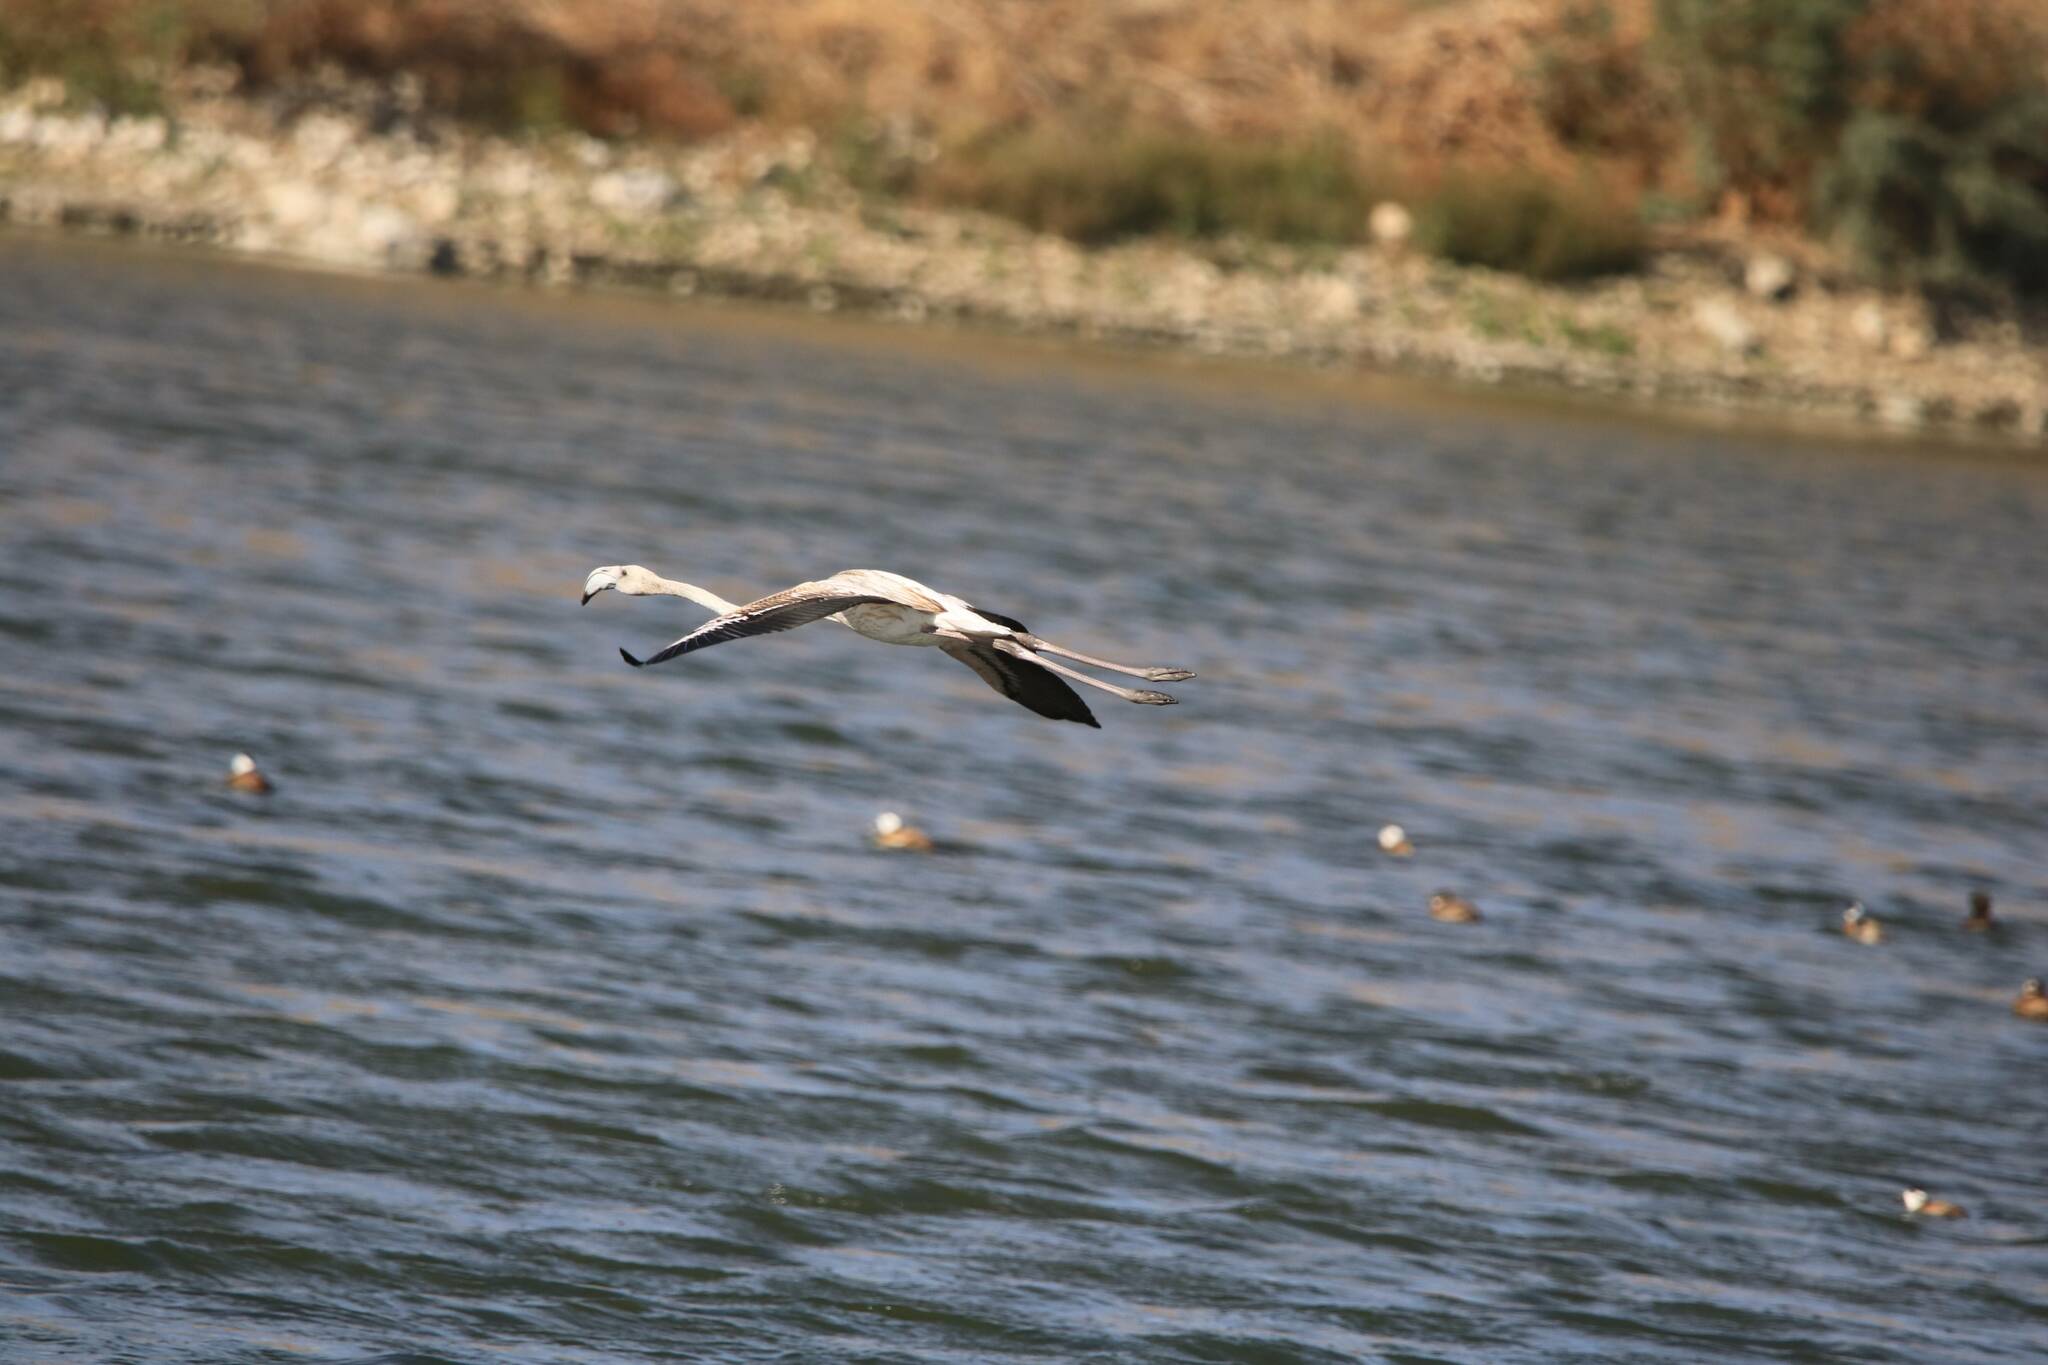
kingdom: Animalia
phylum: Chordata
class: Aves
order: Phoenicopteriformes
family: Phoenicopteridae
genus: Phoenicopterus
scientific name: Phoenicopterus roseus
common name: Greater flamingo
